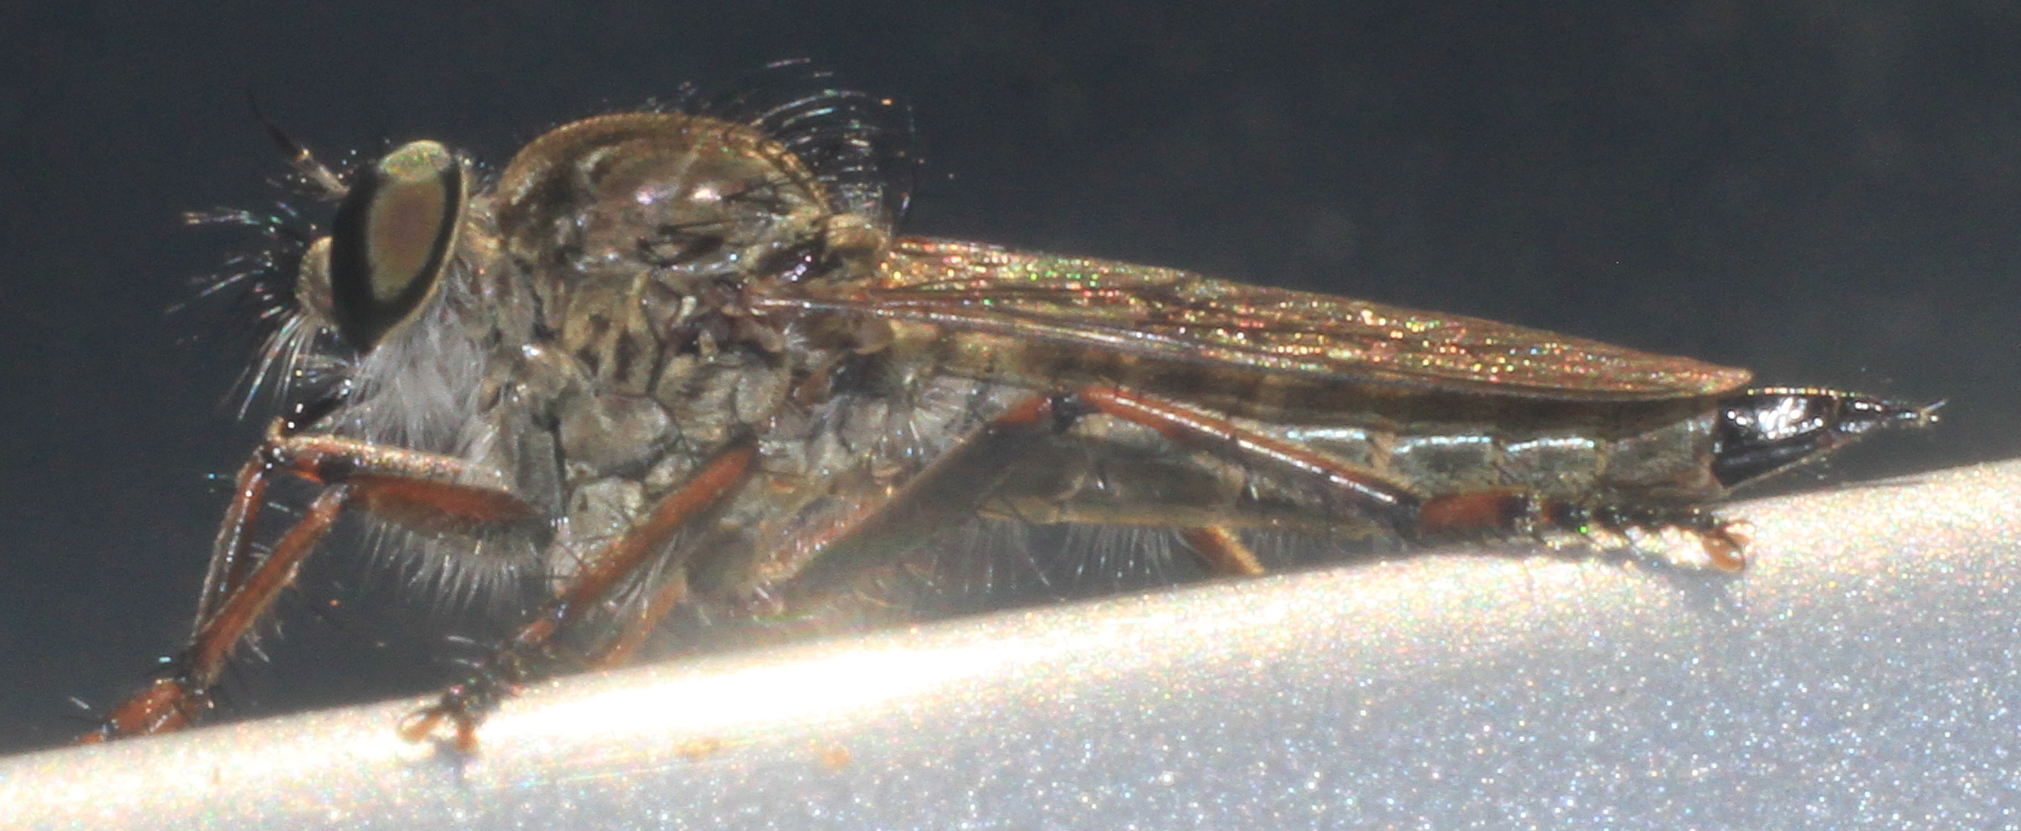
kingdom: Animalia
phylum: Arthropoda
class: Insecta
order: Diptera
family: Asilidae
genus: Machimus
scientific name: Machimus atricapillus
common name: Kite-tailed robberfly
